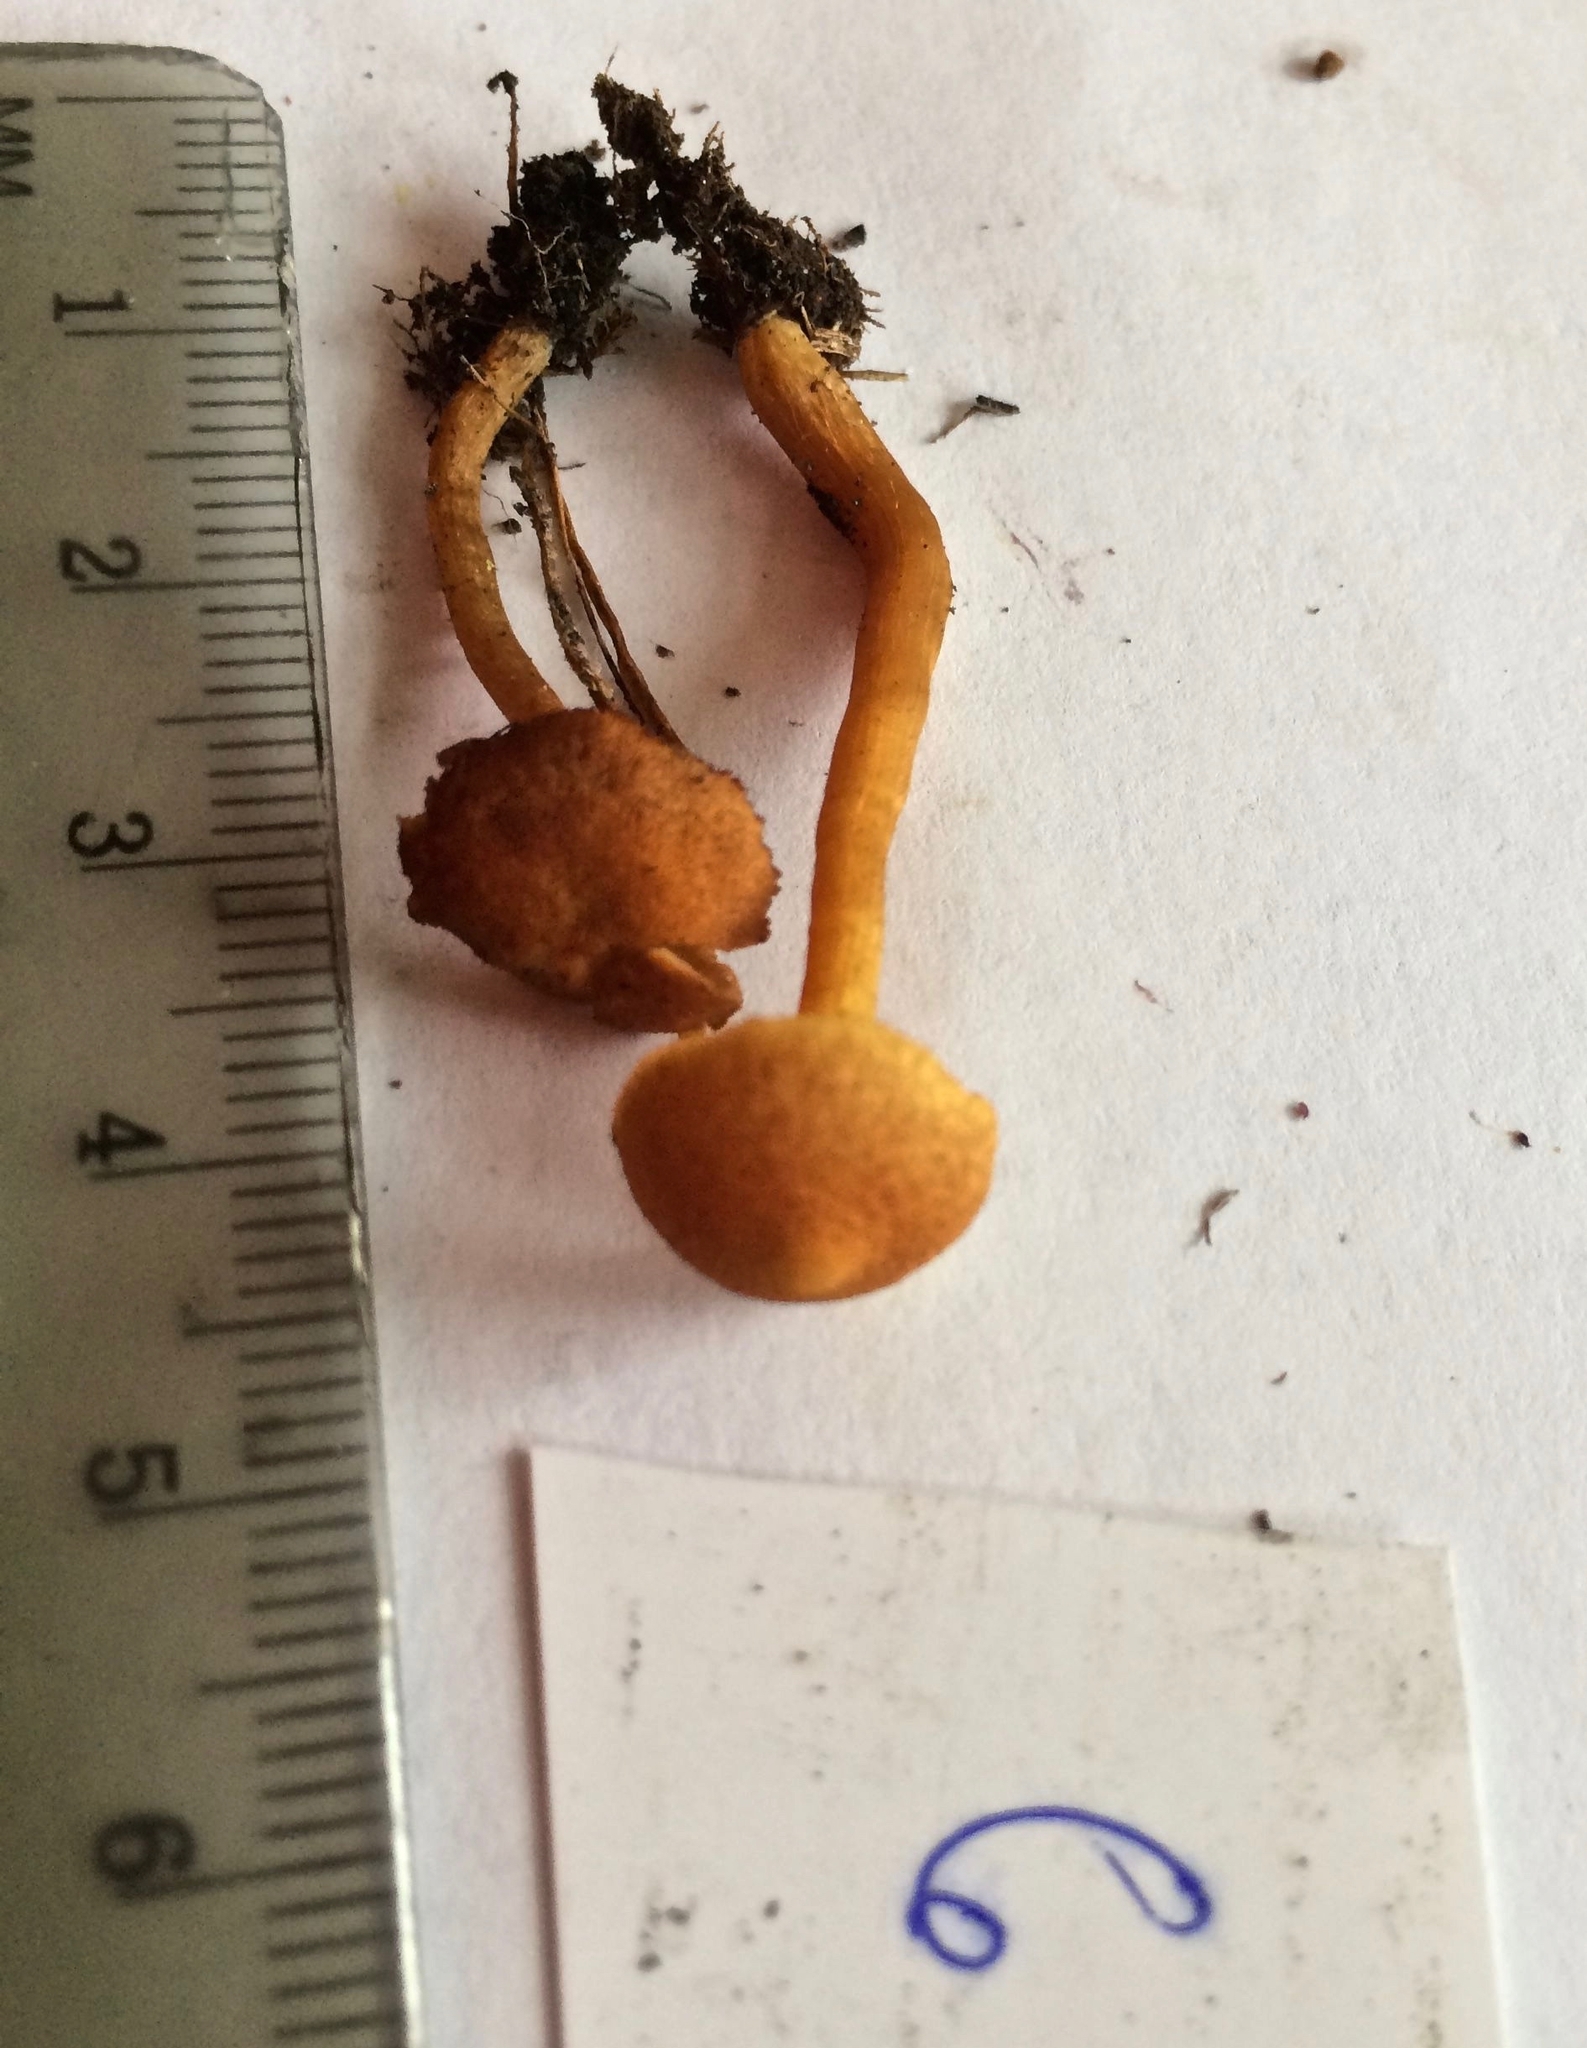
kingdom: Fungi
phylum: Basidiomycota
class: Agaricomycetes
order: Agaricales
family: Hymenogastraceae
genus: Gymnopilus
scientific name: Gymnopilus decipiens
